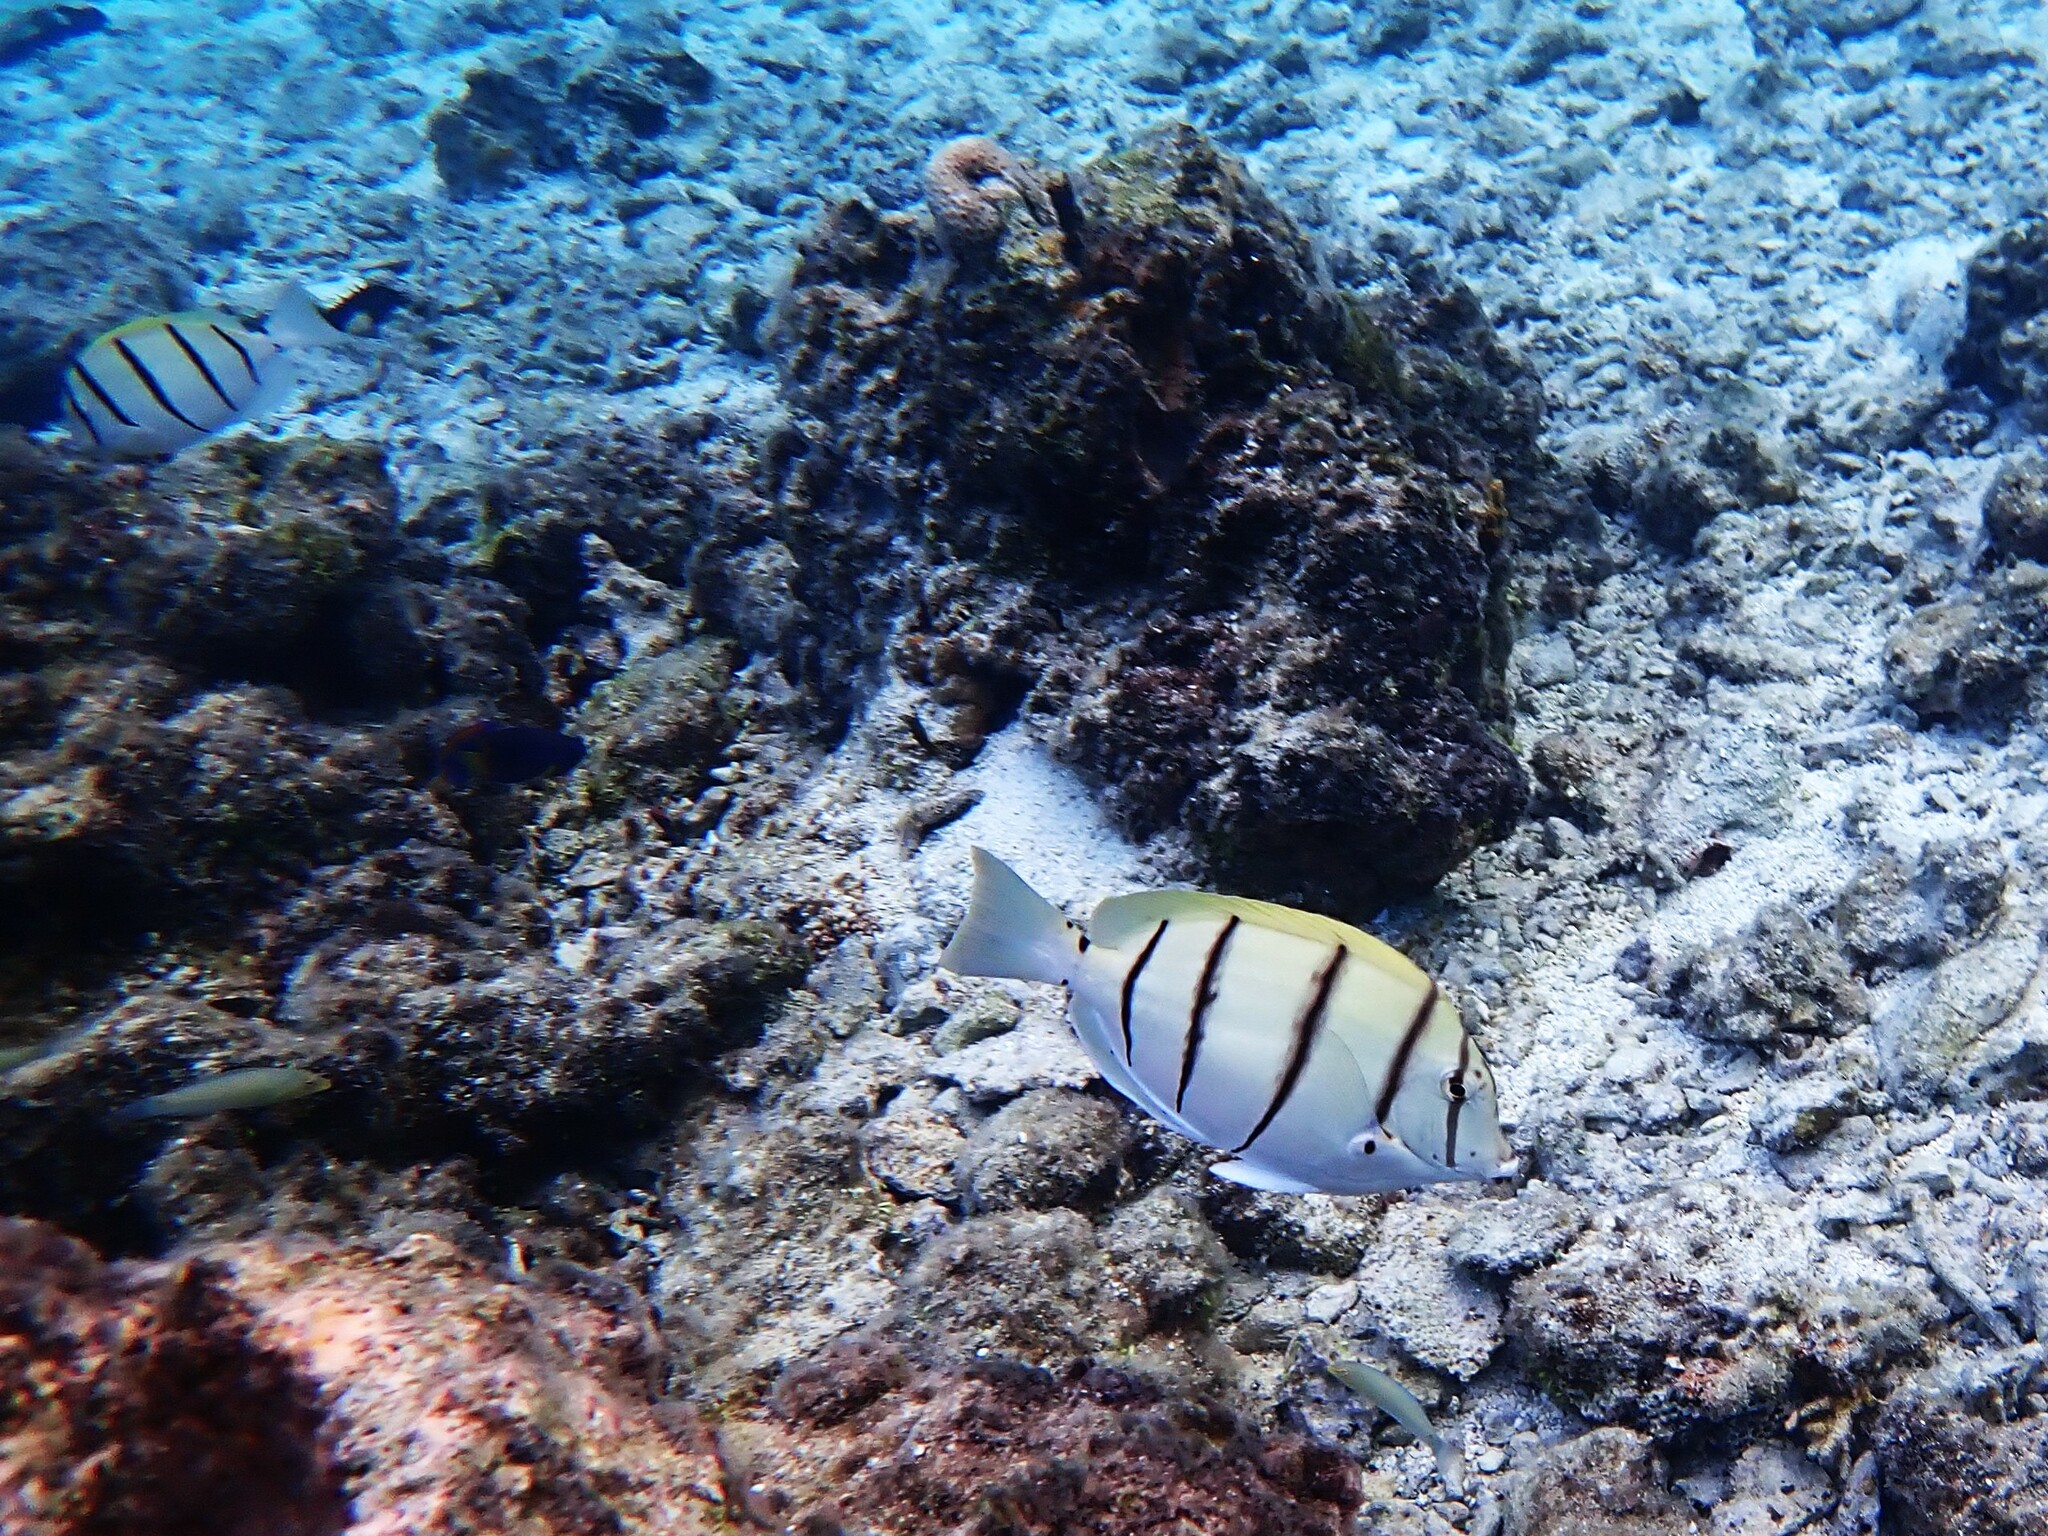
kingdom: Animalia
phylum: Chordata
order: Perciformes
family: Acanthuridae
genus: Acanthurus
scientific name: Acanthurus triostegus
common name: Convict surgeonfish
